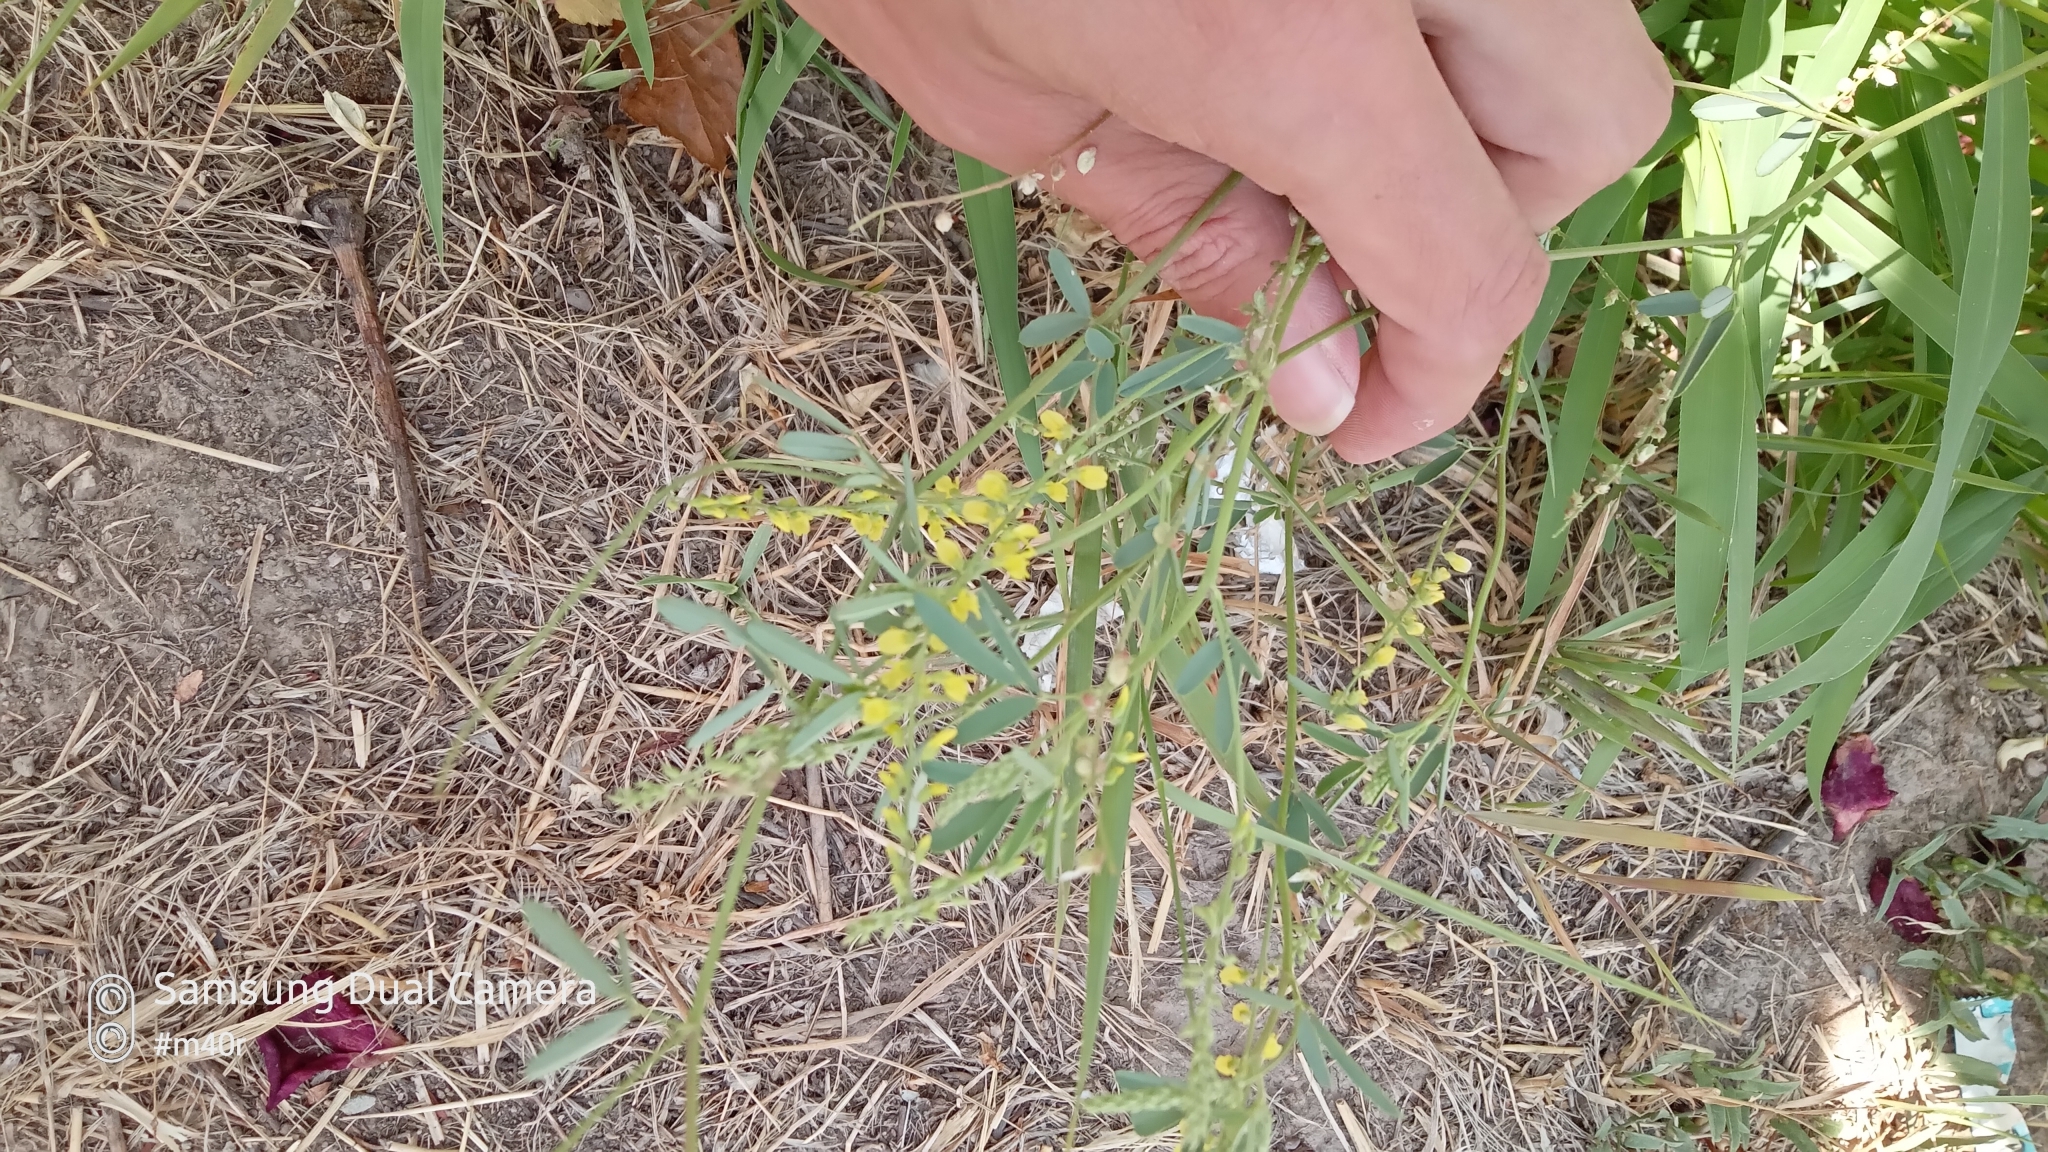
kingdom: Plantae
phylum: Tracheophyta
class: Magnoliopsida
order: Fabales
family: Fabaceae
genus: Melilotus
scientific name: Melilotus officinalis
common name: Sweetclover
